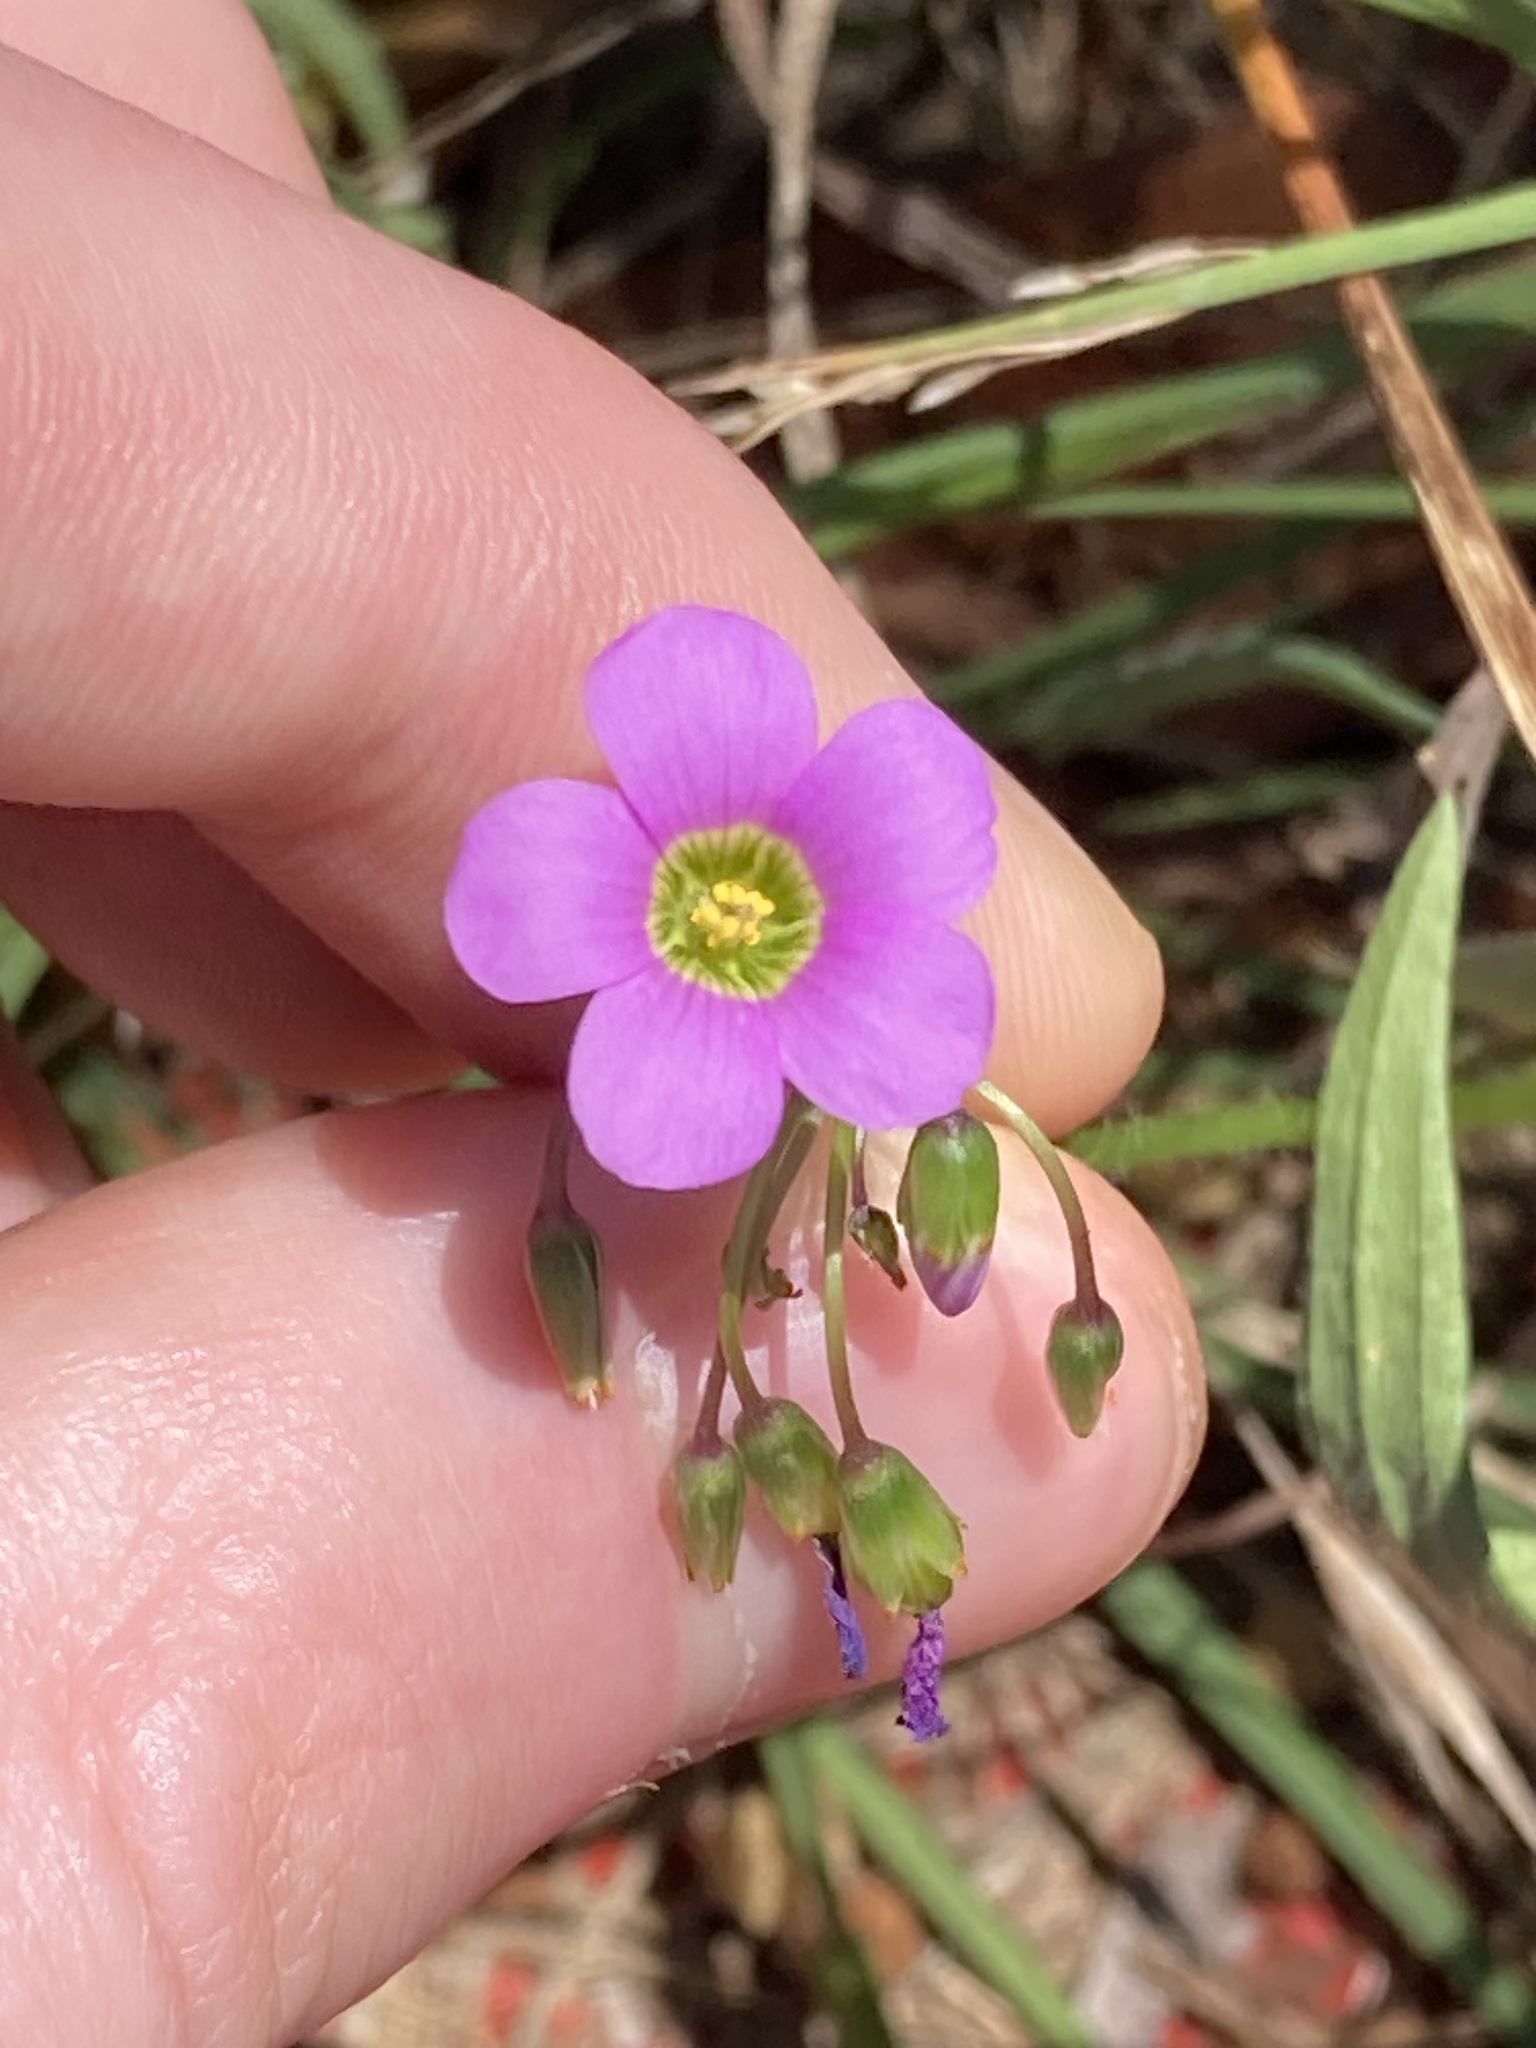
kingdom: Plantae
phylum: Tracheophyta
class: Magnoliopsida
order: Oxalidales
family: Oxalidaceae
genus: Oxalis
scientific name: Oxalis latifolia
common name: Garden pink-sorrel
